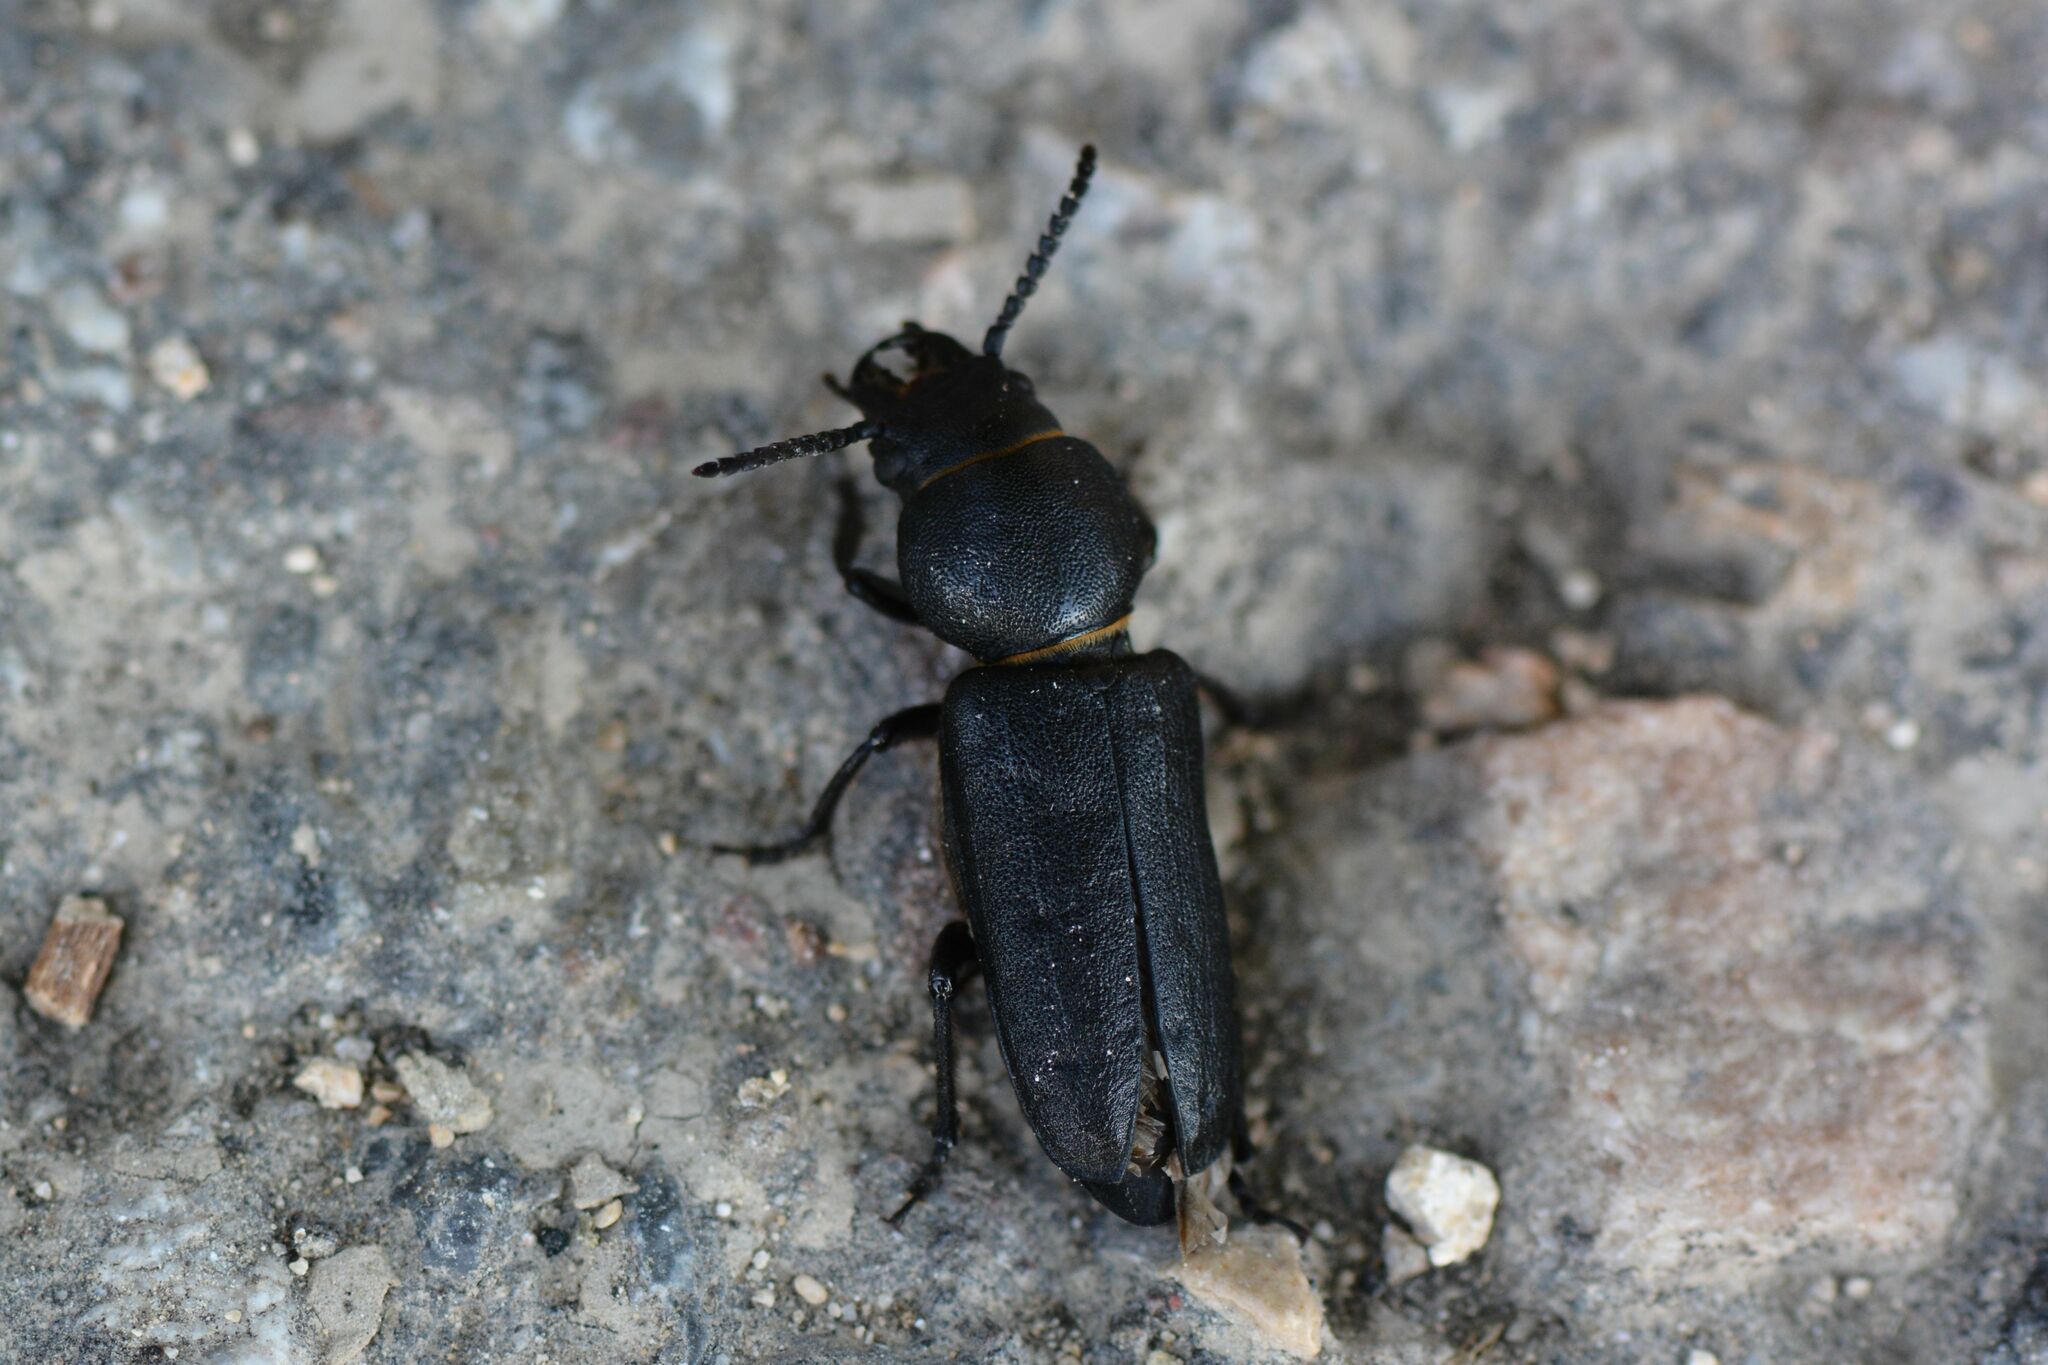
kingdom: Animalia
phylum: Arthropoda
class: Insecta
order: Coleoptera
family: Cerambycidae
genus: Spondylis
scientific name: Spondylis buprestoides
